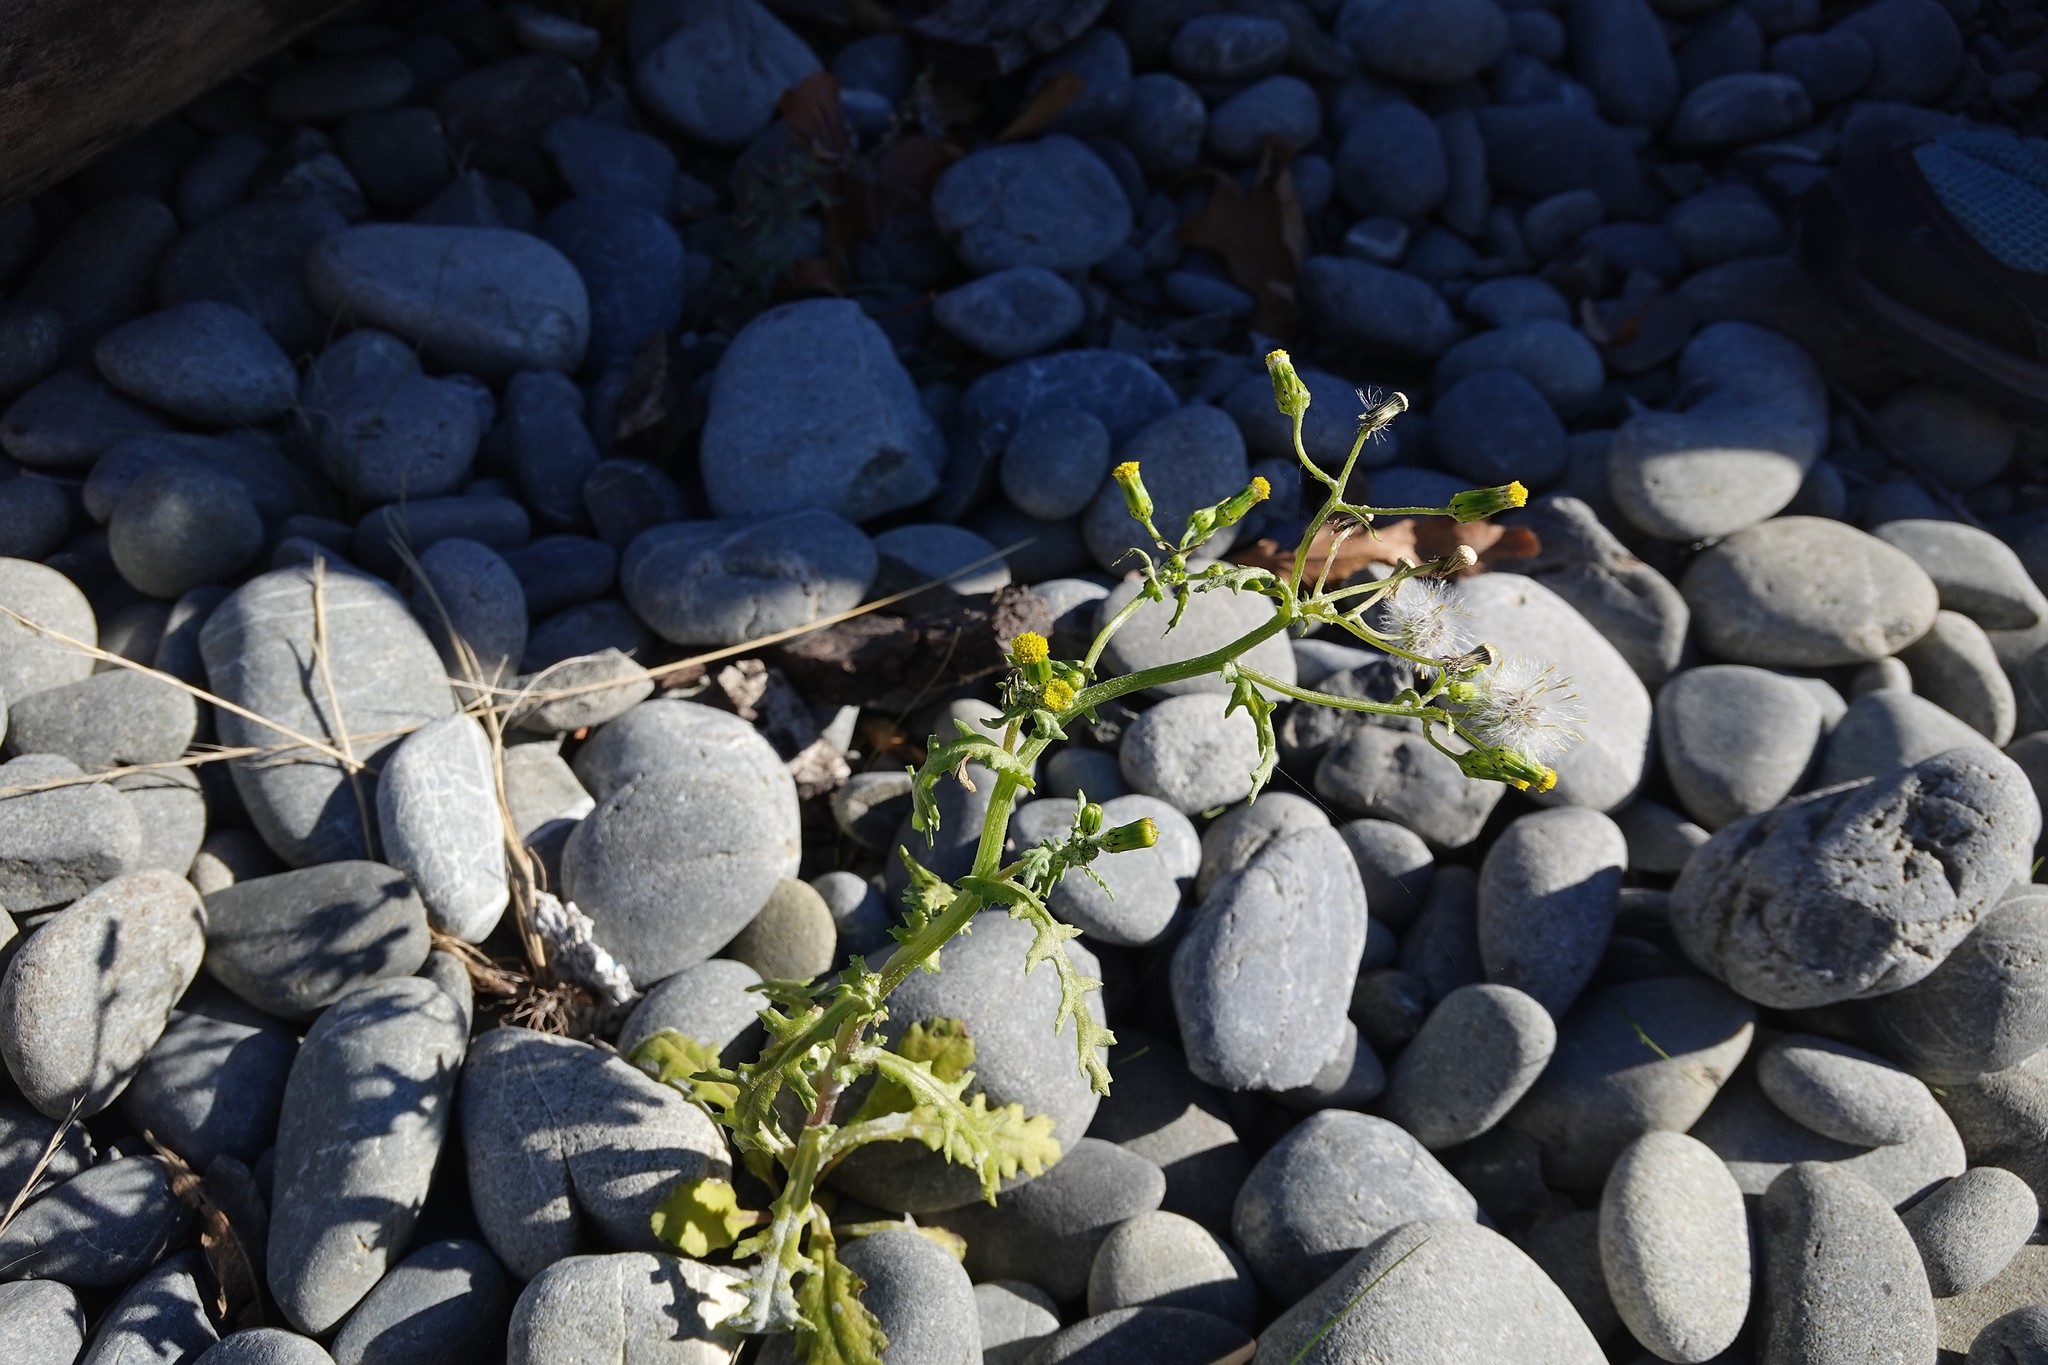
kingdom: Plantae
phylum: Tracheophyta
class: Magnoliopsida
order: Asterales
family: Asteraceae
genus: Senecio
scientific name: Senecio vulgaris
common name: Old-man-in-the-spring
